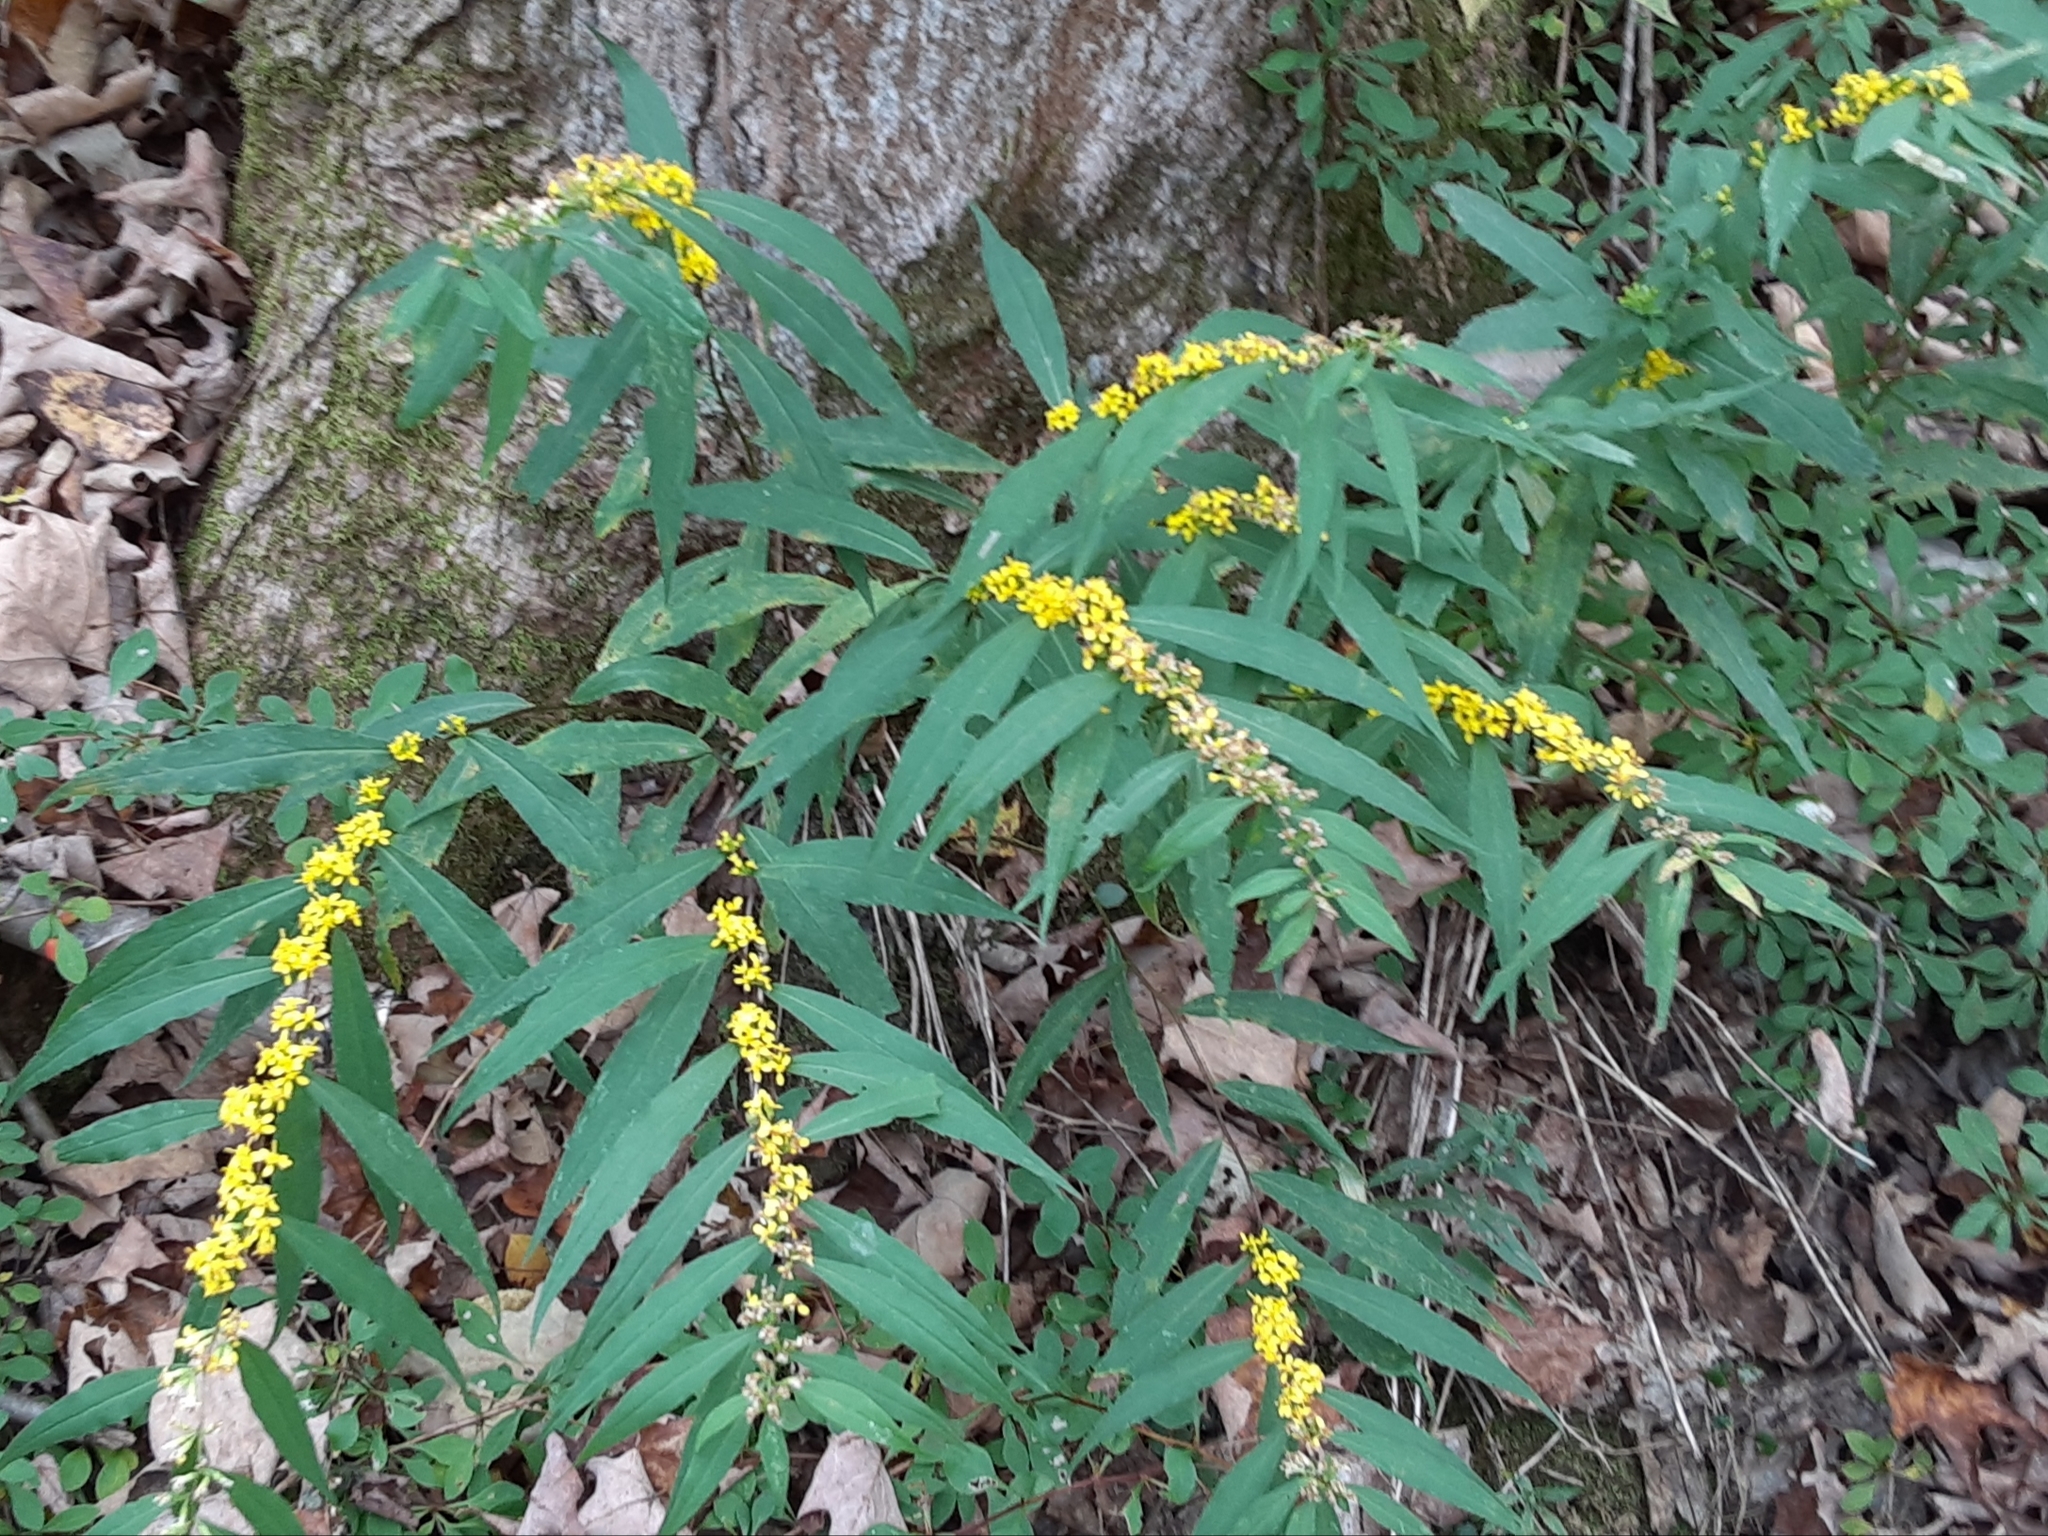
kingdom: Plantae
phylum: Tracheophyta
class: Magnoliopsida
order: Asterales
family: Asteraceae
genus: Solidago
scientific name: Solidago caesia
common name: Woodland goldenrod
